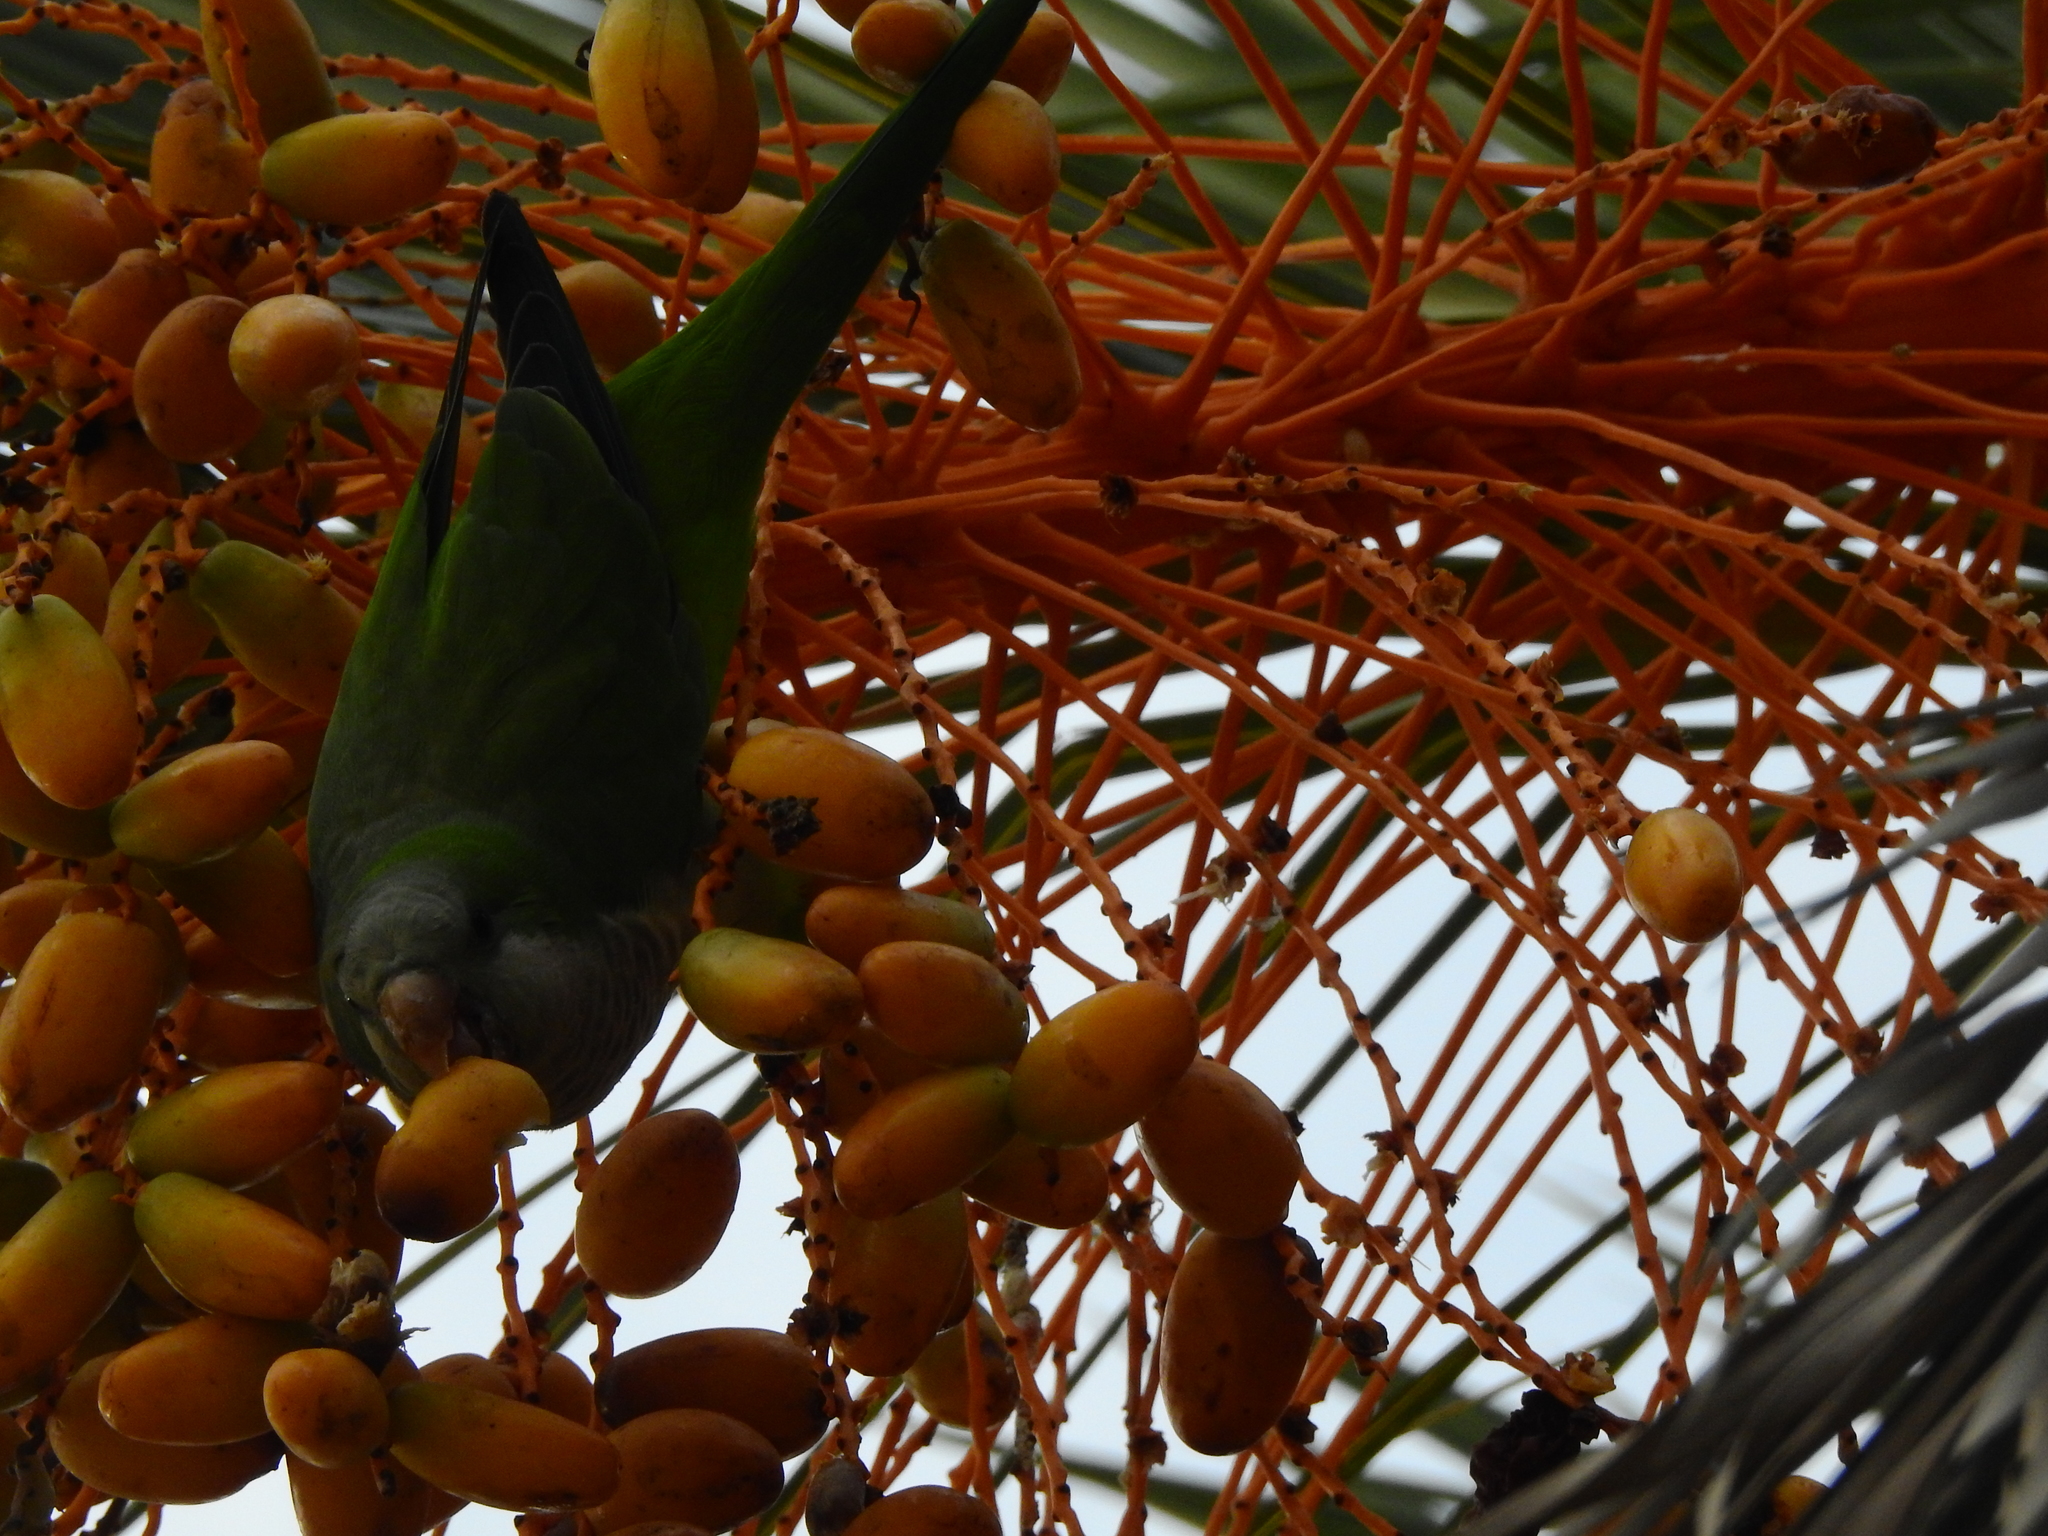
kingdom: Animalia
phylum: Chordata
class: Aves
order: Psittaciformes
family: Psittacidae
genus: Myiopsitta
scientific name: Myiopsitta monachus
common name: Monk parakeet
